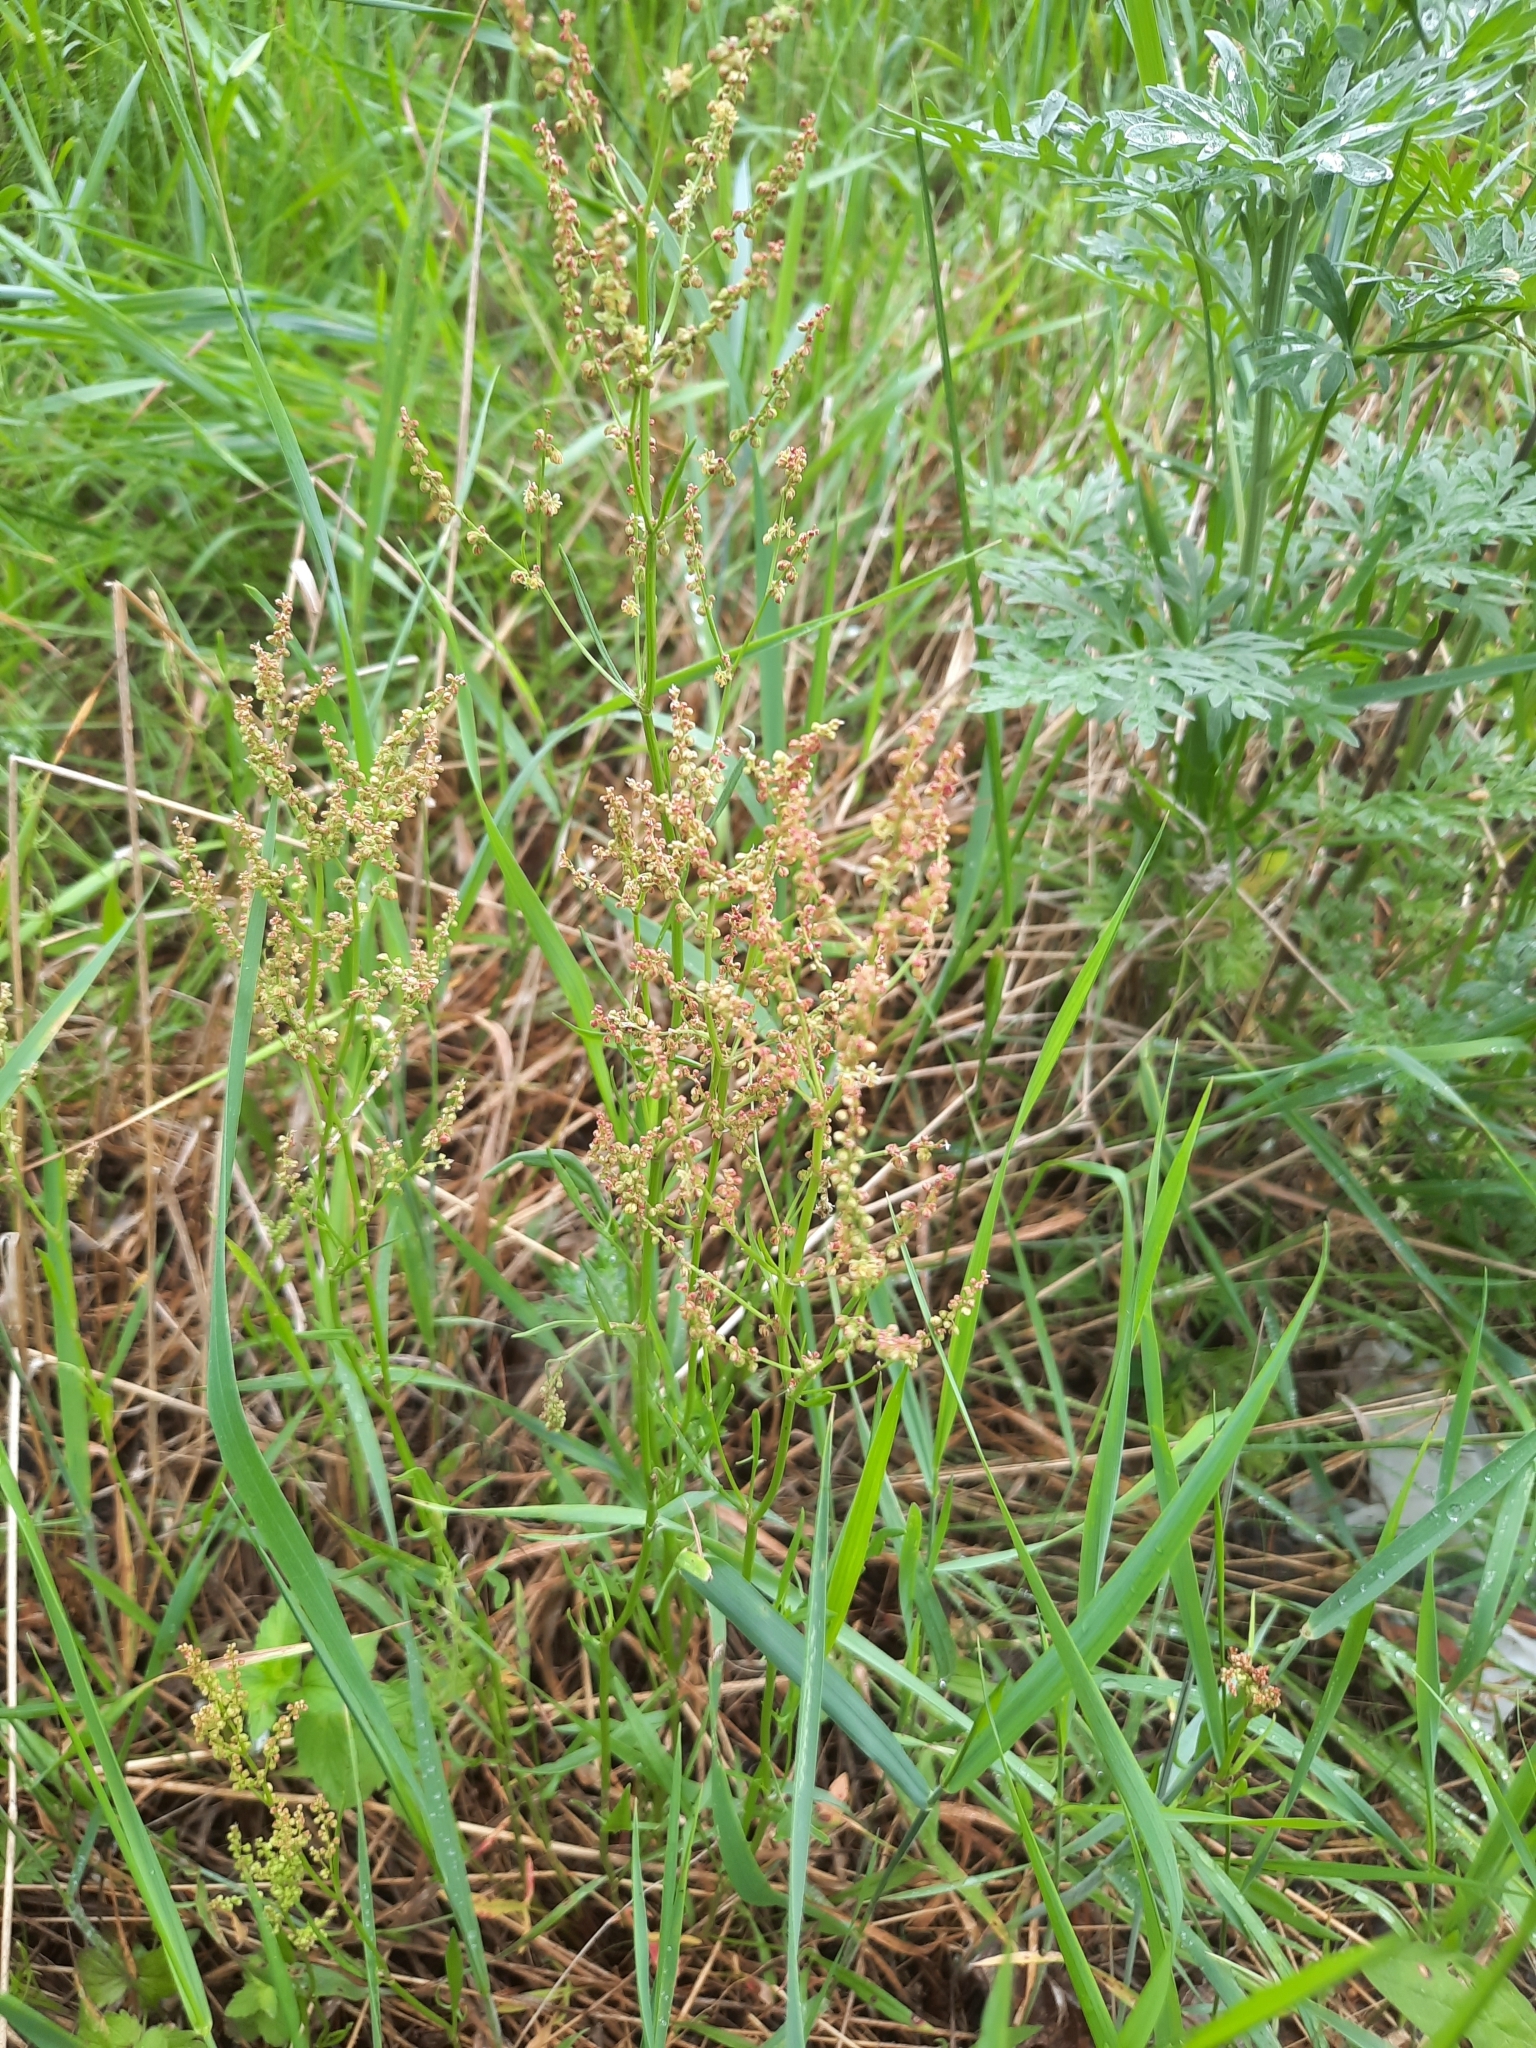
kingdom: Plantae
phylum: Tracheophyta
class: Magnoliopsida
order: Caryophyllales
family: Polygonaceae
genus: Rumex
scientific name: Rumex thyrsiflorus
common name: Garden sorrel
